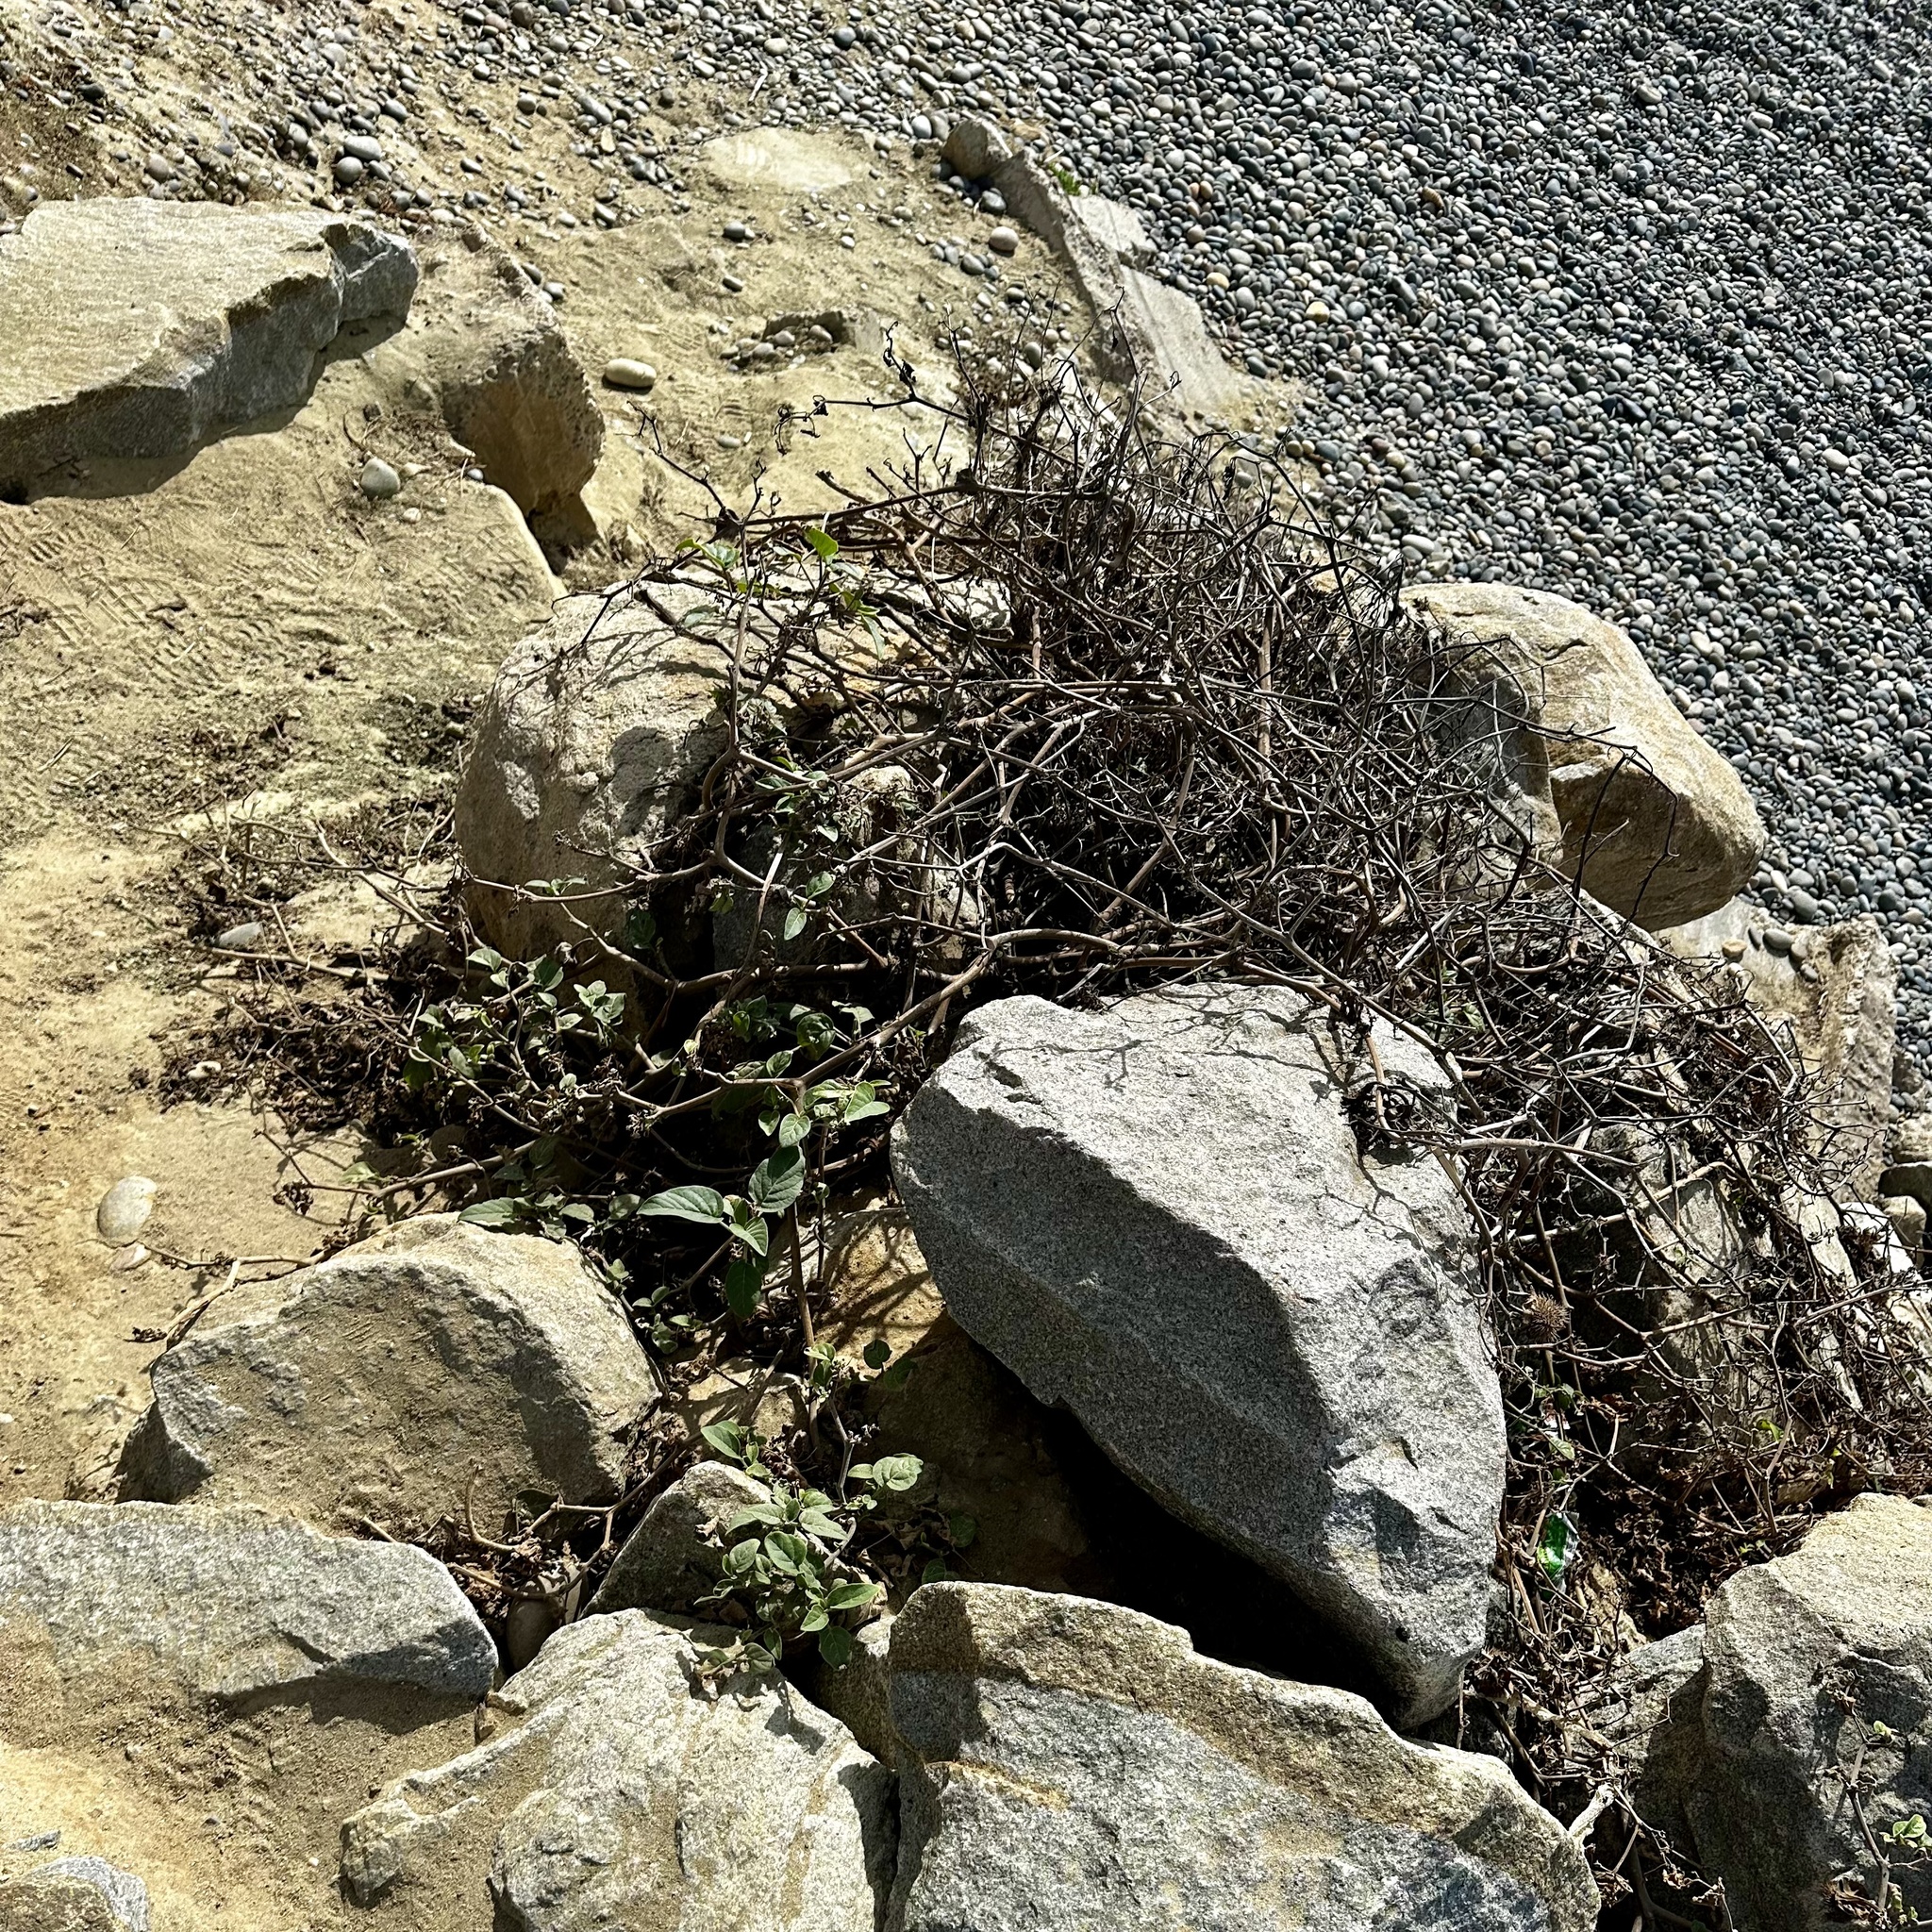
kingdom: Plantae
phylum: Tracheophyta
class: Magnoliopsida
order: Solanales
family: Solanaceae
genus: Datura
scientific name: Datura wrightii
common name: Sacred thorn-apple
